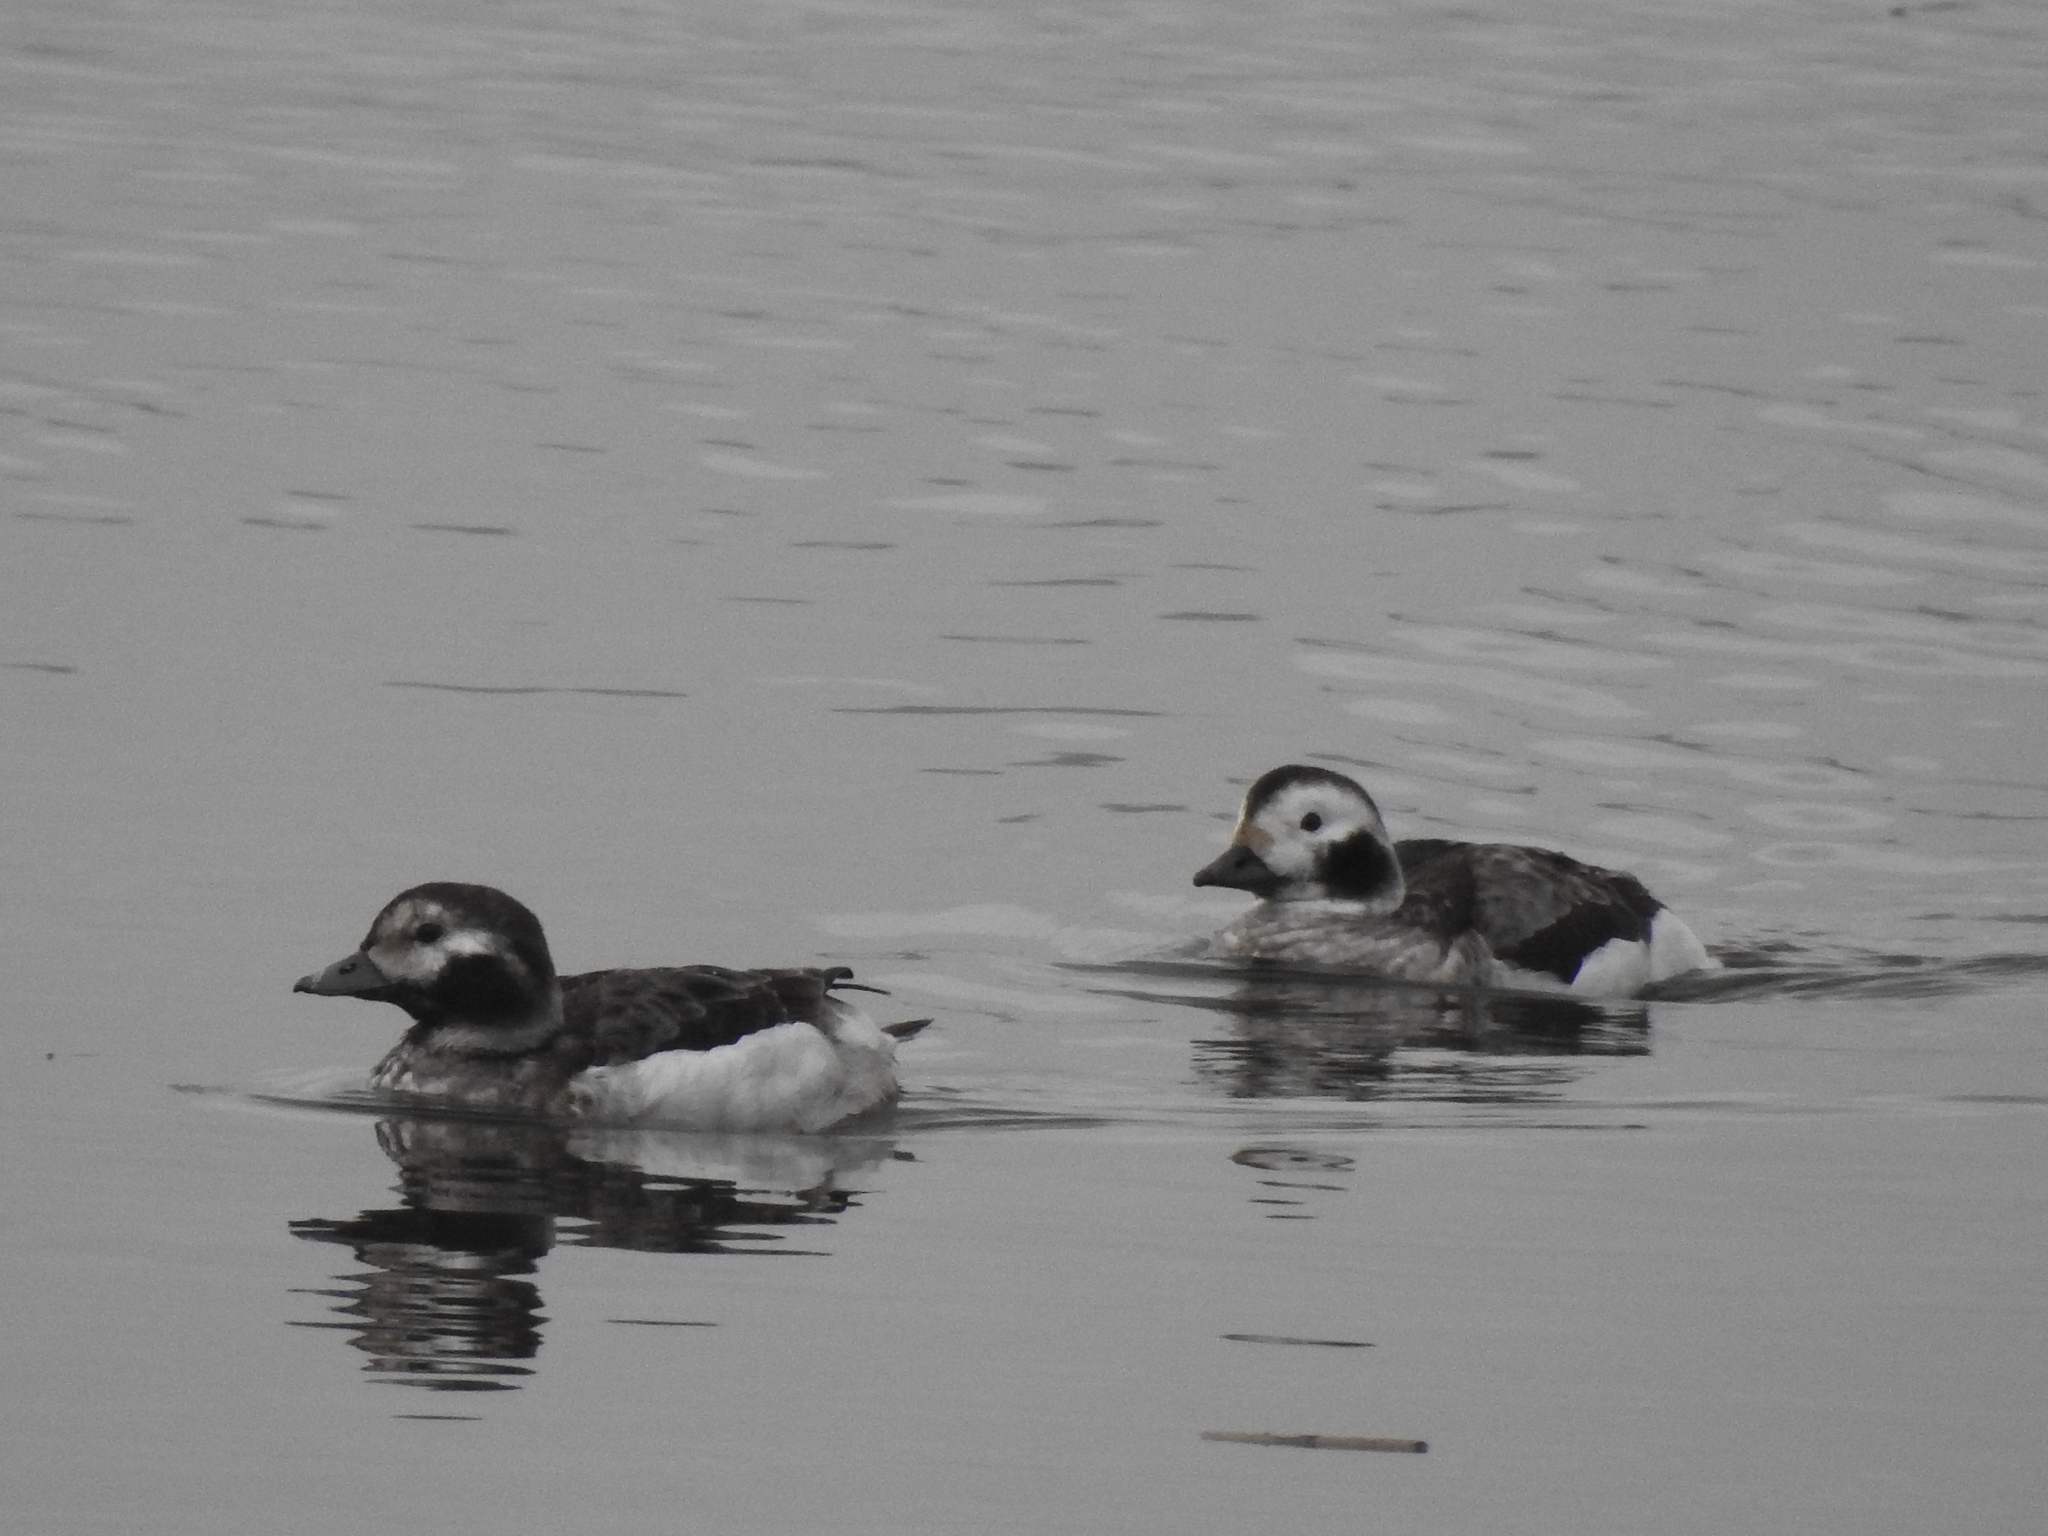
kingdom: Animalia
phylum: Chordata
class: Aves
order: Anseriformes
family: Anatidae
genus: Clangula
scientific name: Clangula hyemalis
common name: Long-tailed duck
